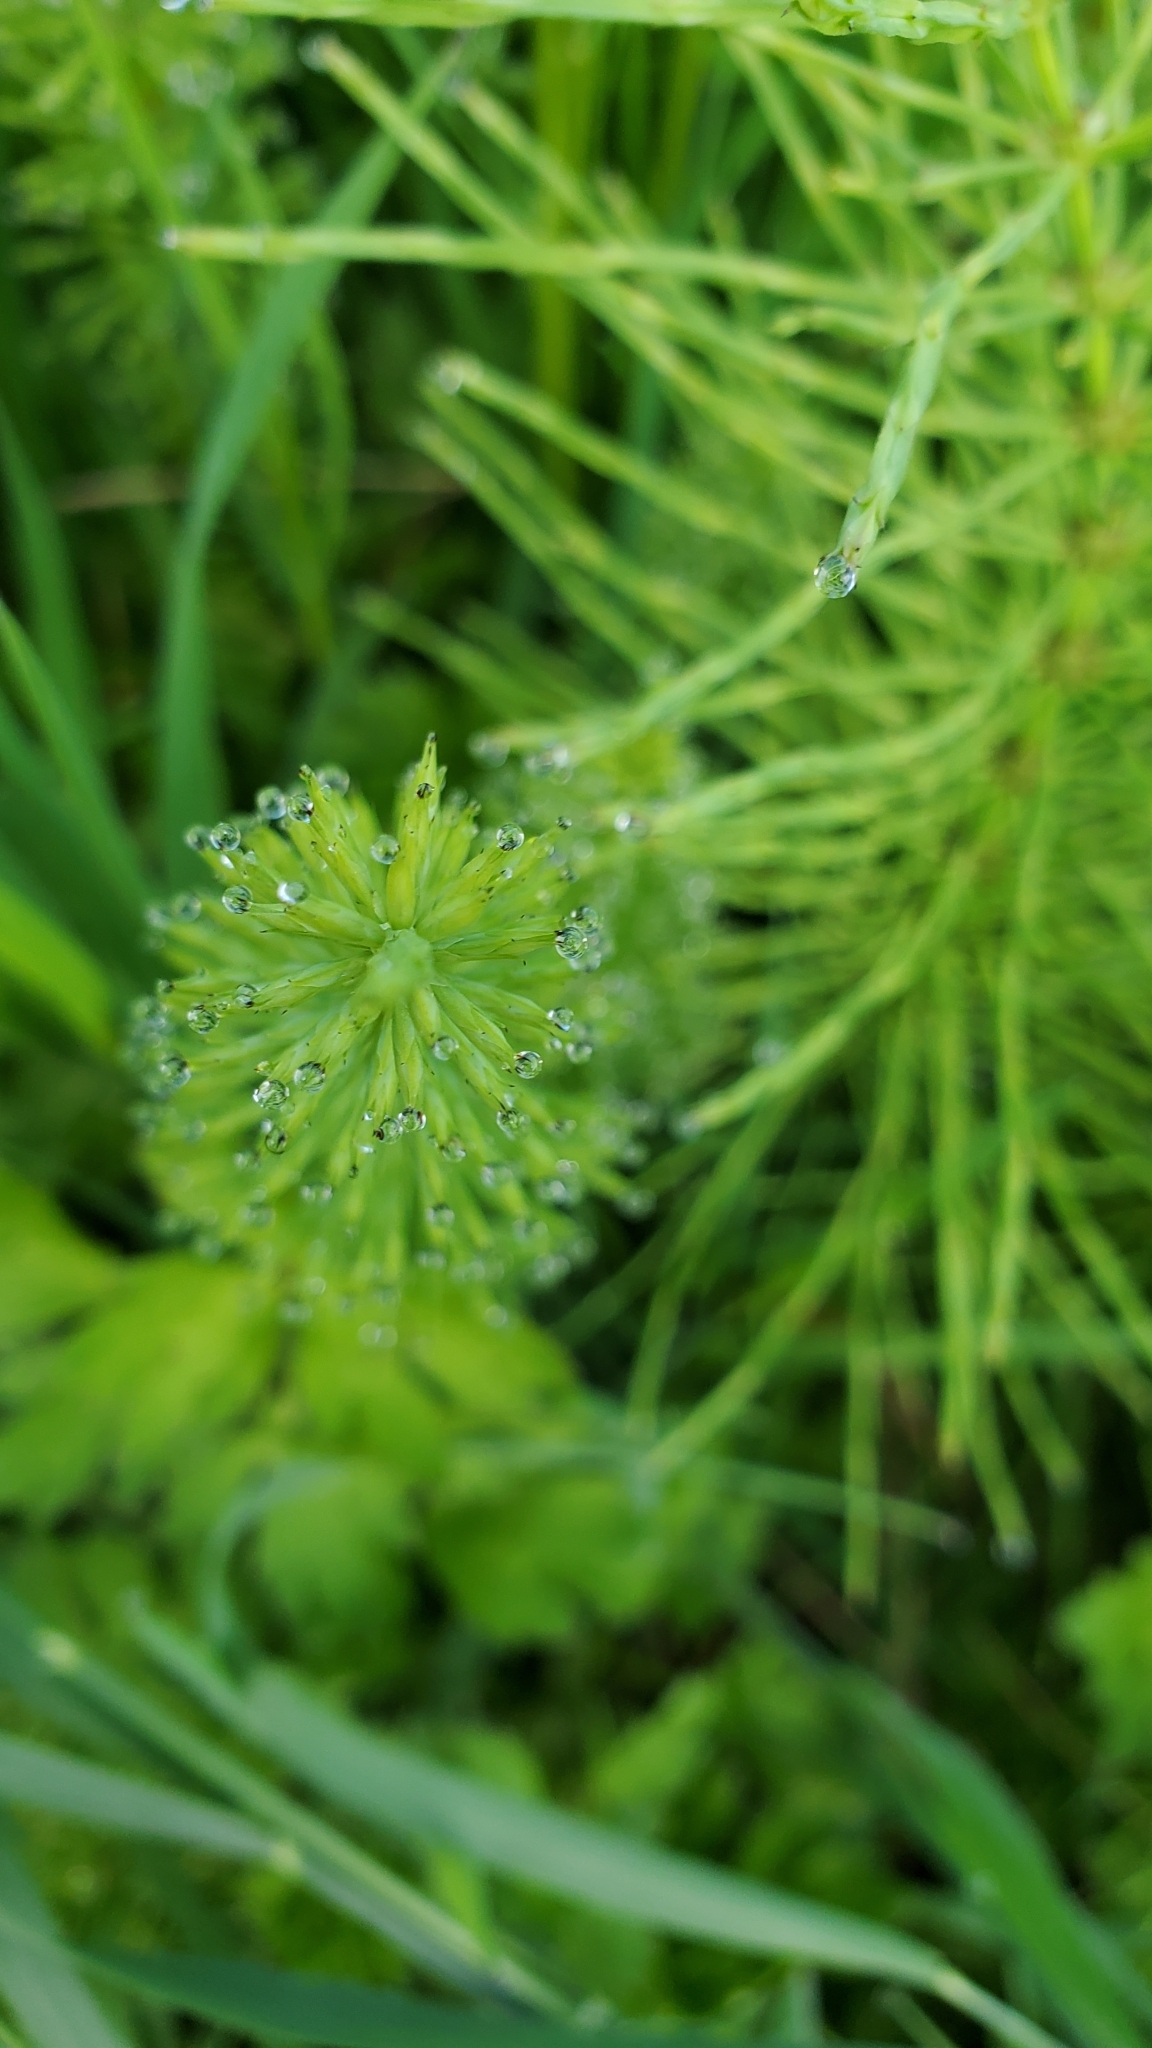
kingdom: Plantae
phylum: Tracheophyta
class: Polypodiopsida
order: Equisetales
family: Equisetaceae
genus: Equisetum
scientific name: Equisetum arvense
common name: Field horsetail
